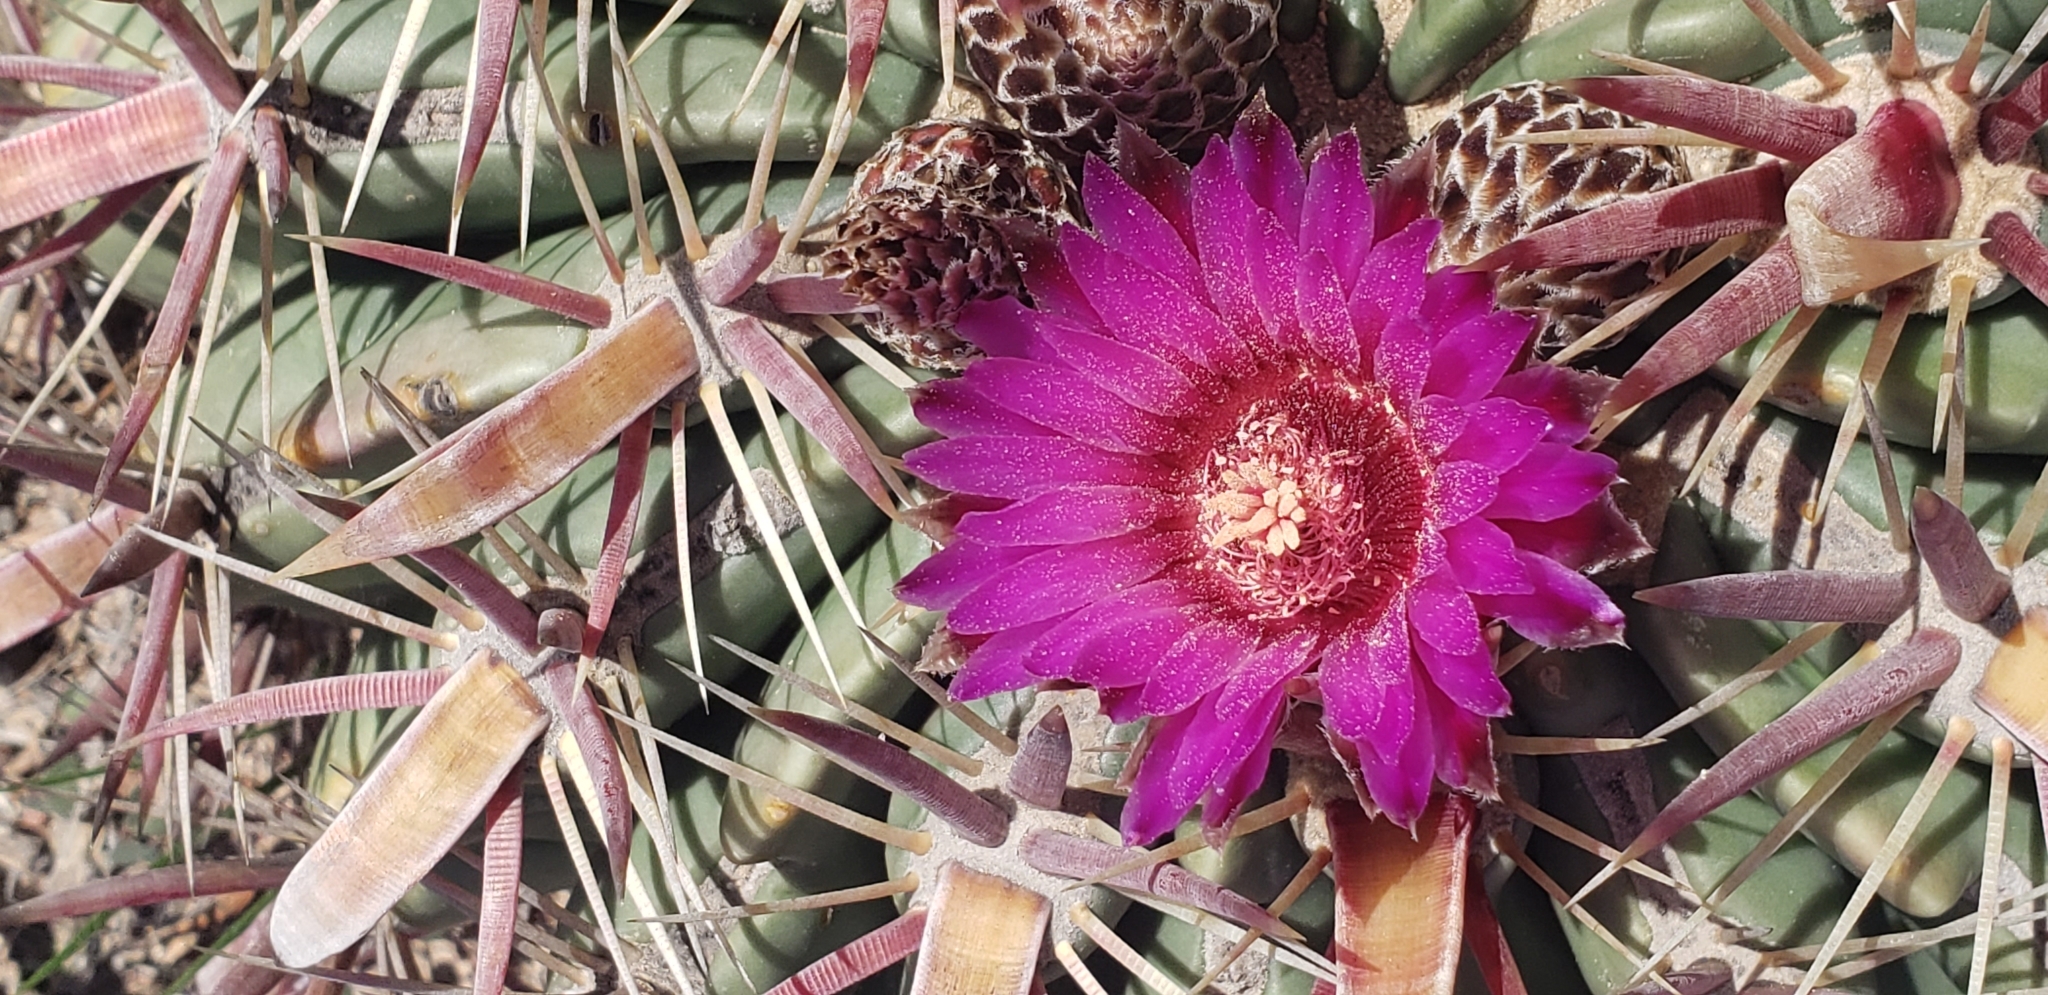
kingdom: Plantae
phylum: Tracheophyta
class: Magnoliopsida
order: Caryophyllales
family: Cactaceae
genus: Ferocactus
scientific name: Ferocactus latispinus
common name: Devil's-tongue cactus
